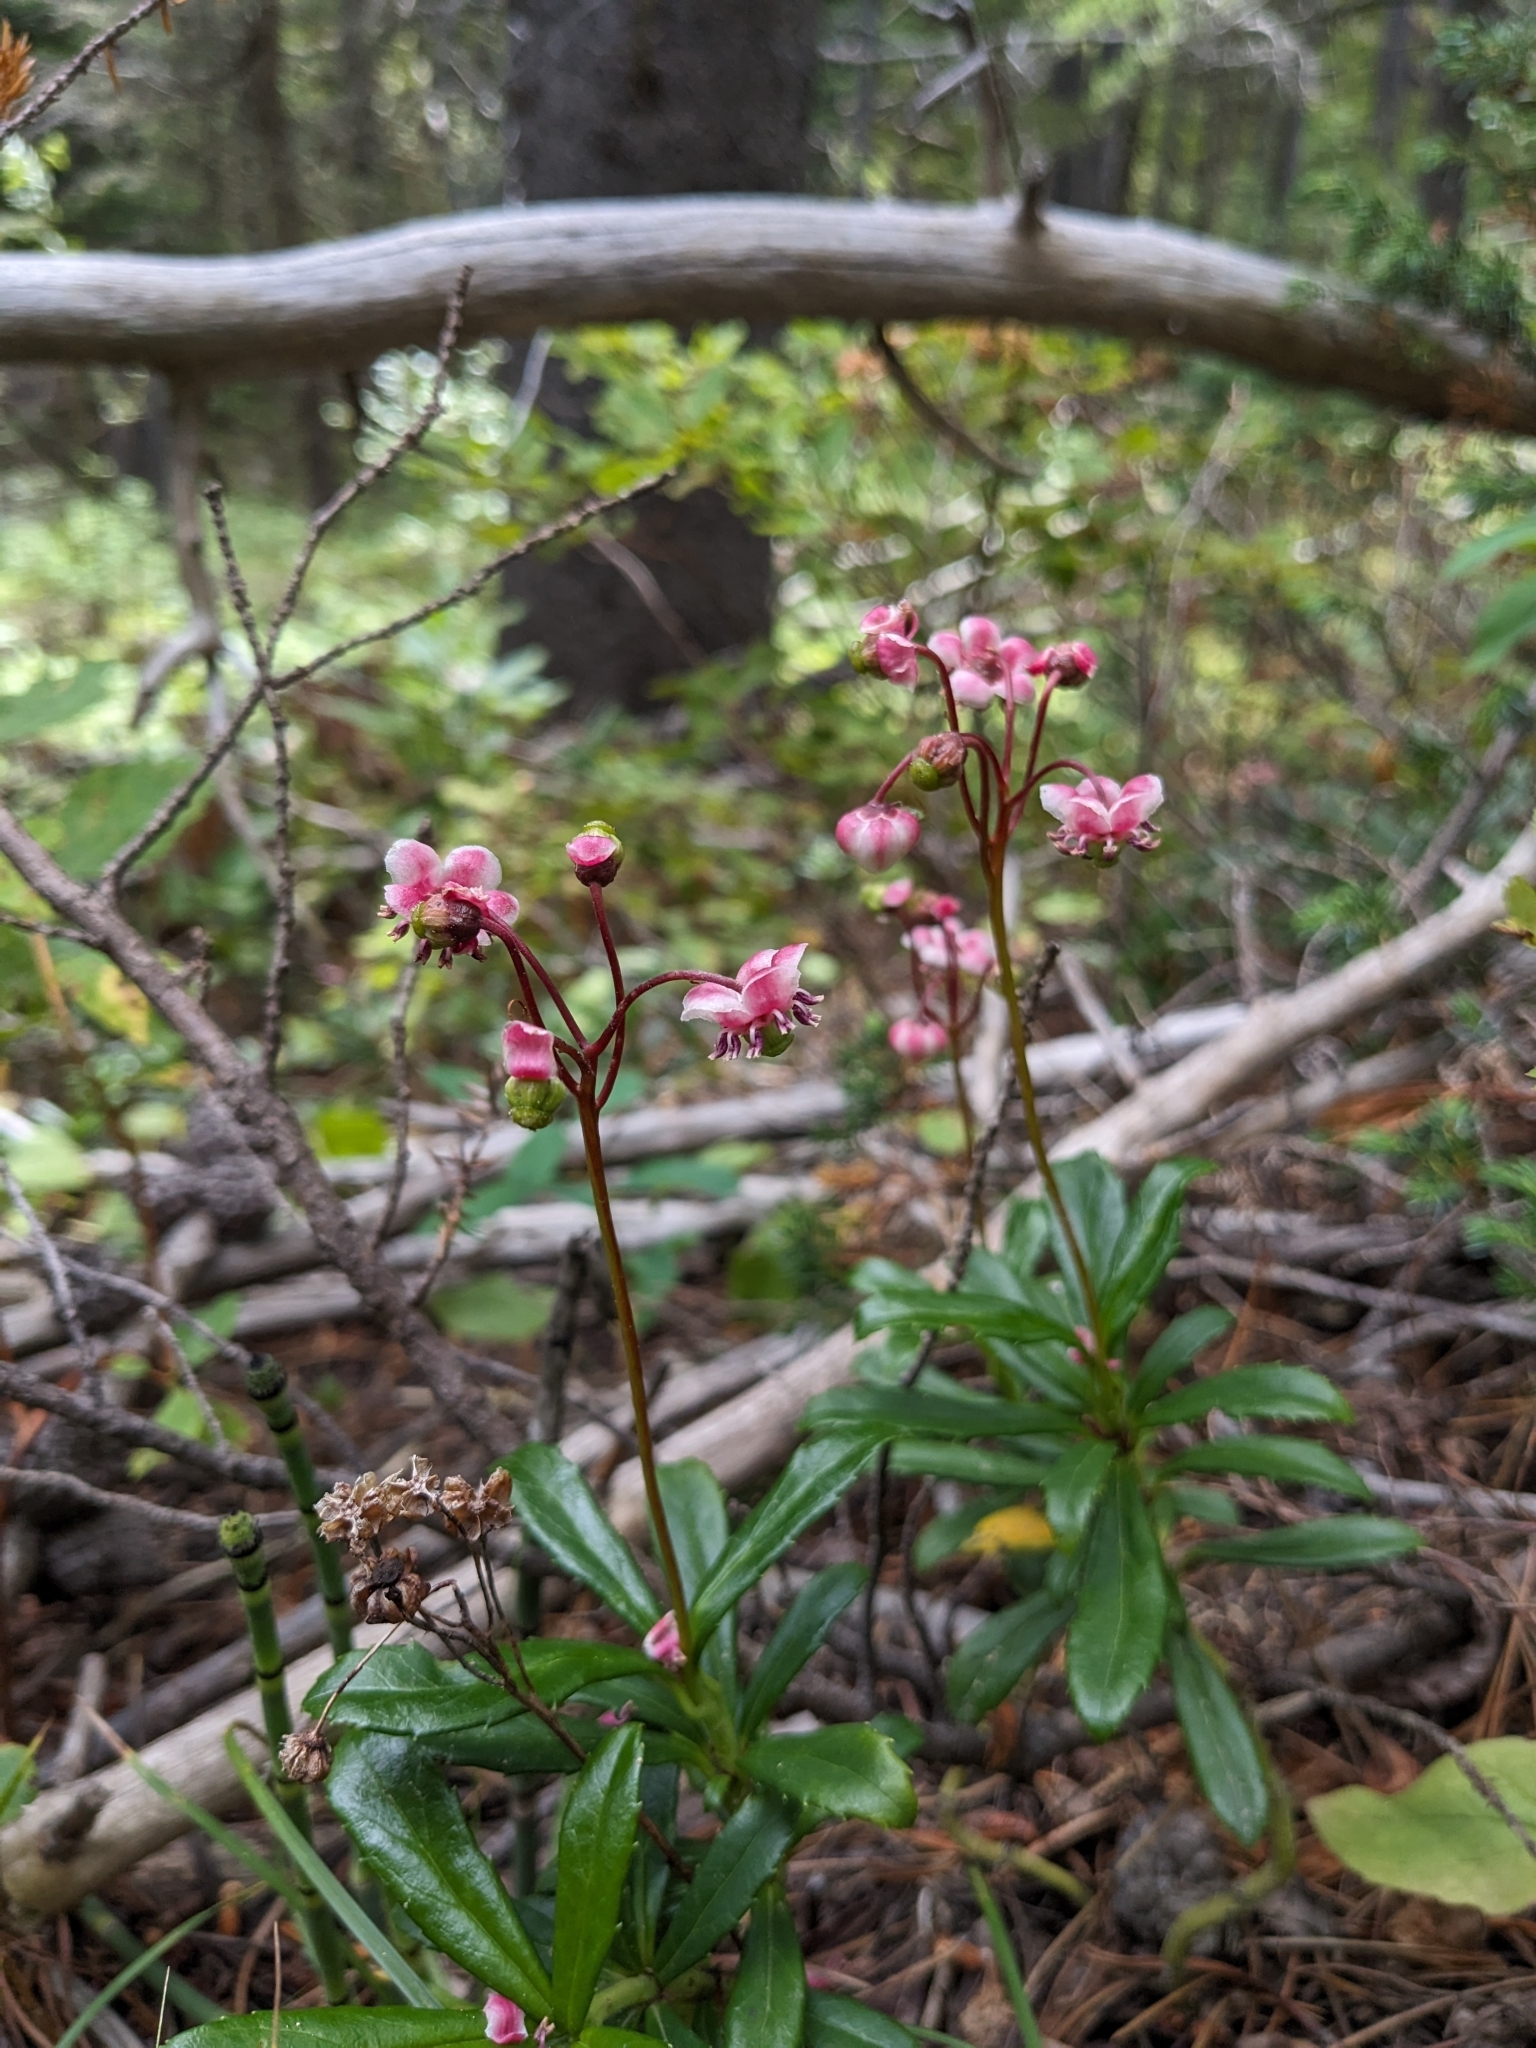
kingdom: Plantae
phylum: Tracheophyta
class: Magnoliopsida
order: Ericales
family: Ericaceae
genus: Chimaphila
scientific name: Chimaphila umbellata
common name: Pipsissewa
